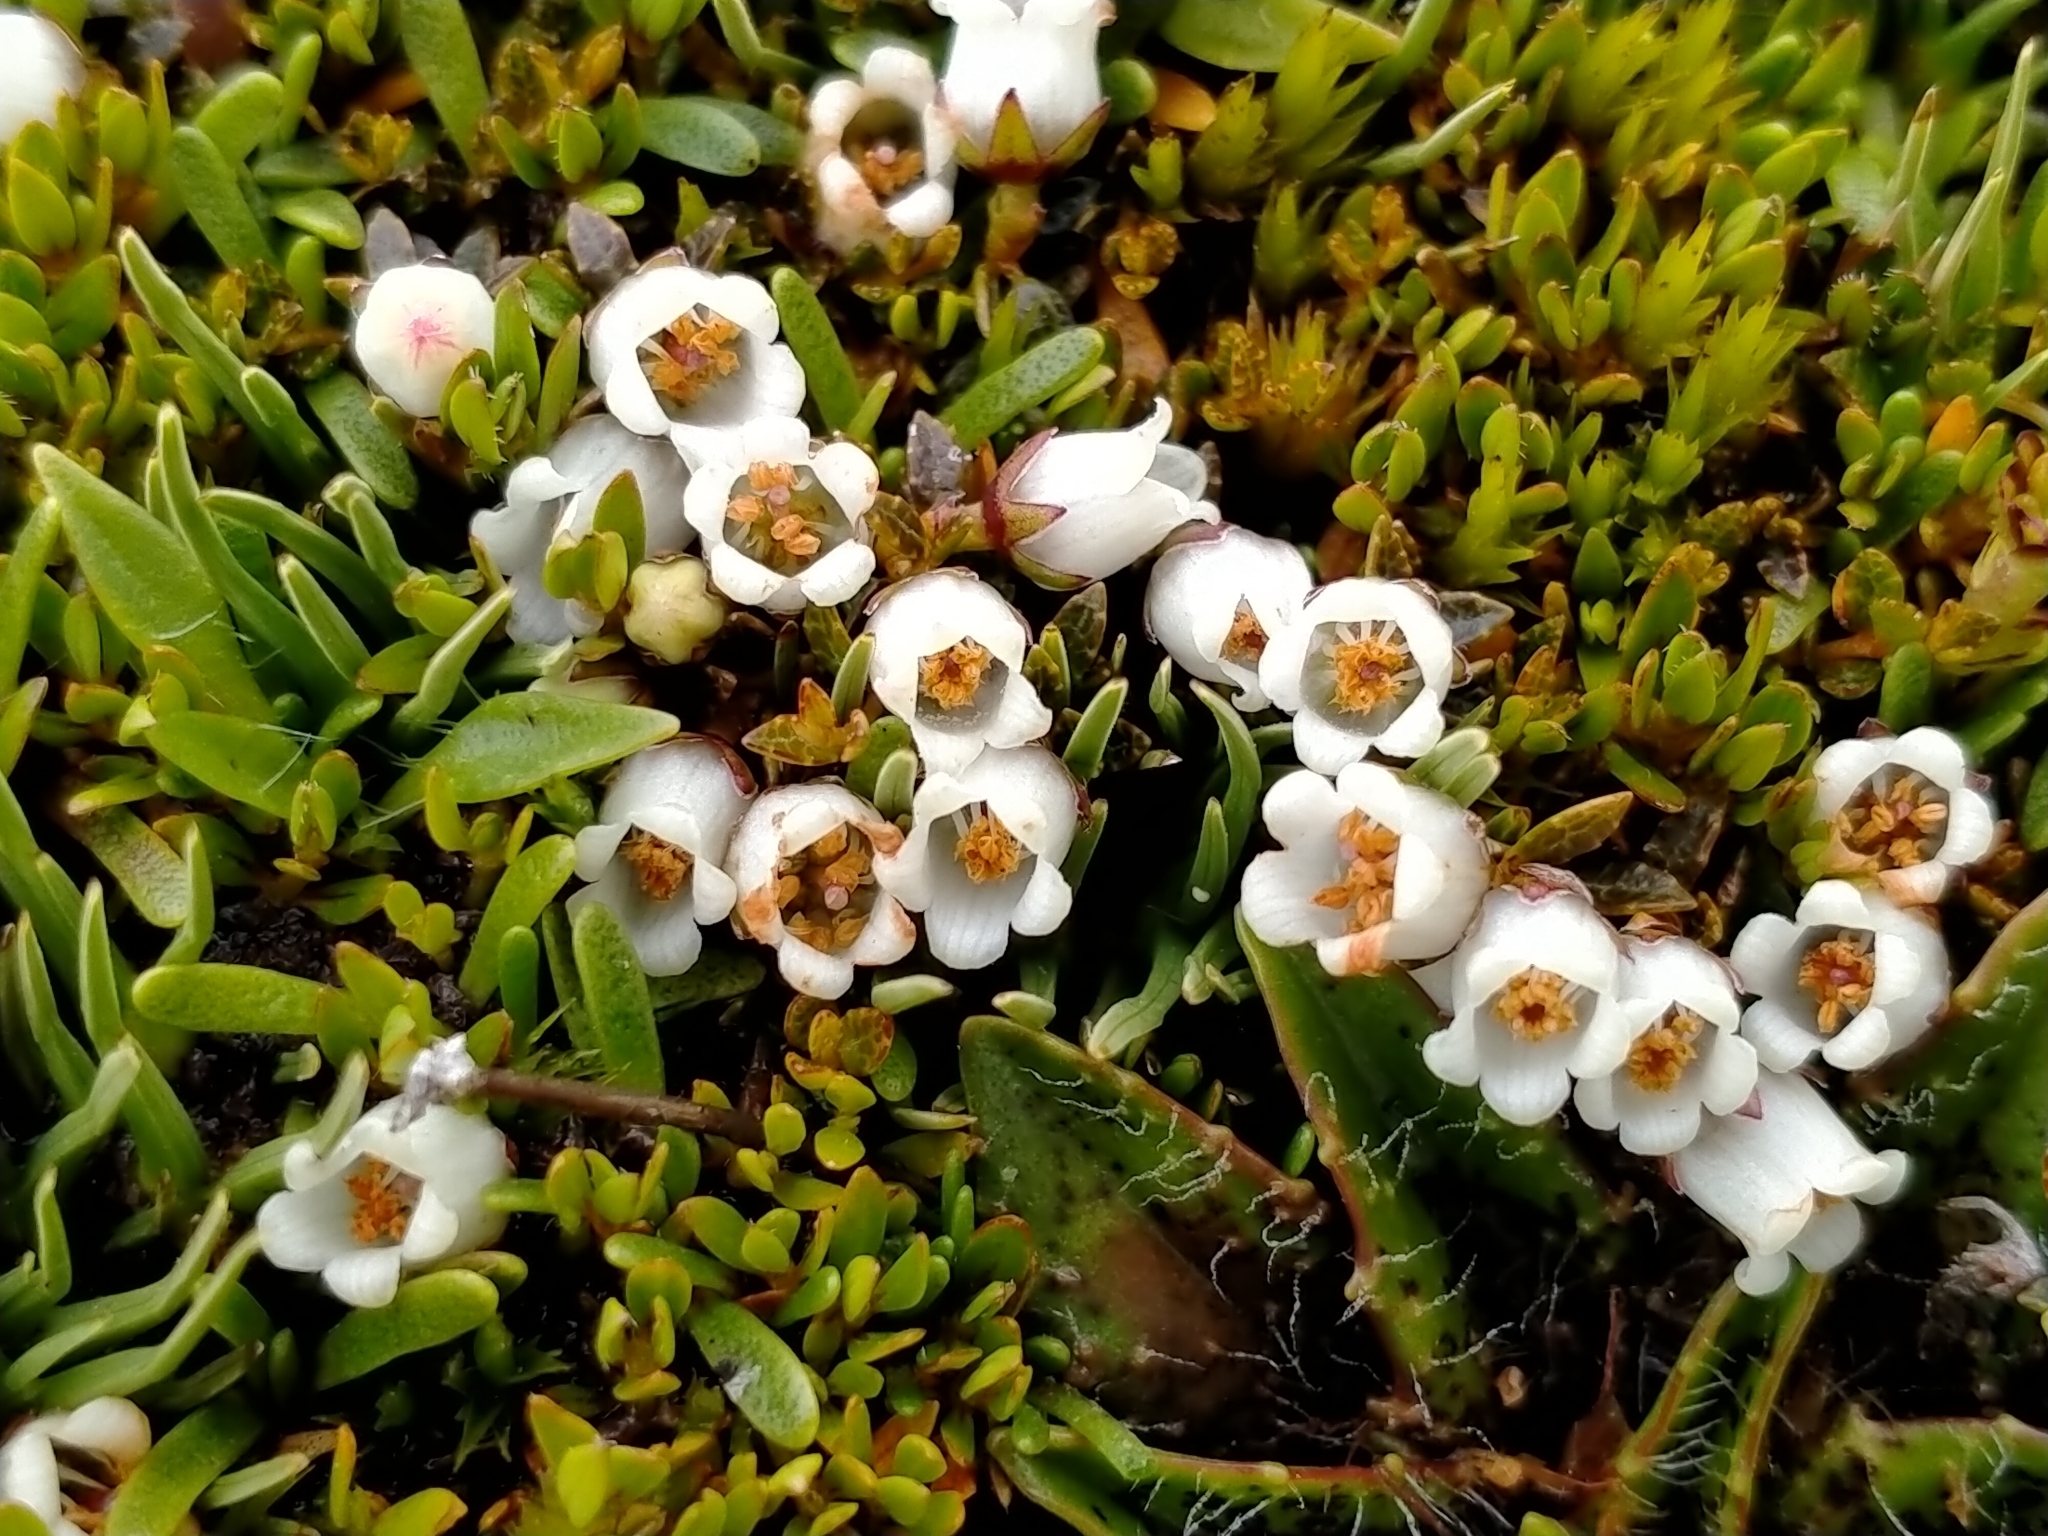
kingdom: Plantae
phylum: Tracheophyta
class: Magnoliopsida
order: Ericales
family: Ericaceae
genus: Gaultheria
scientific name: Gaultheria parvula
